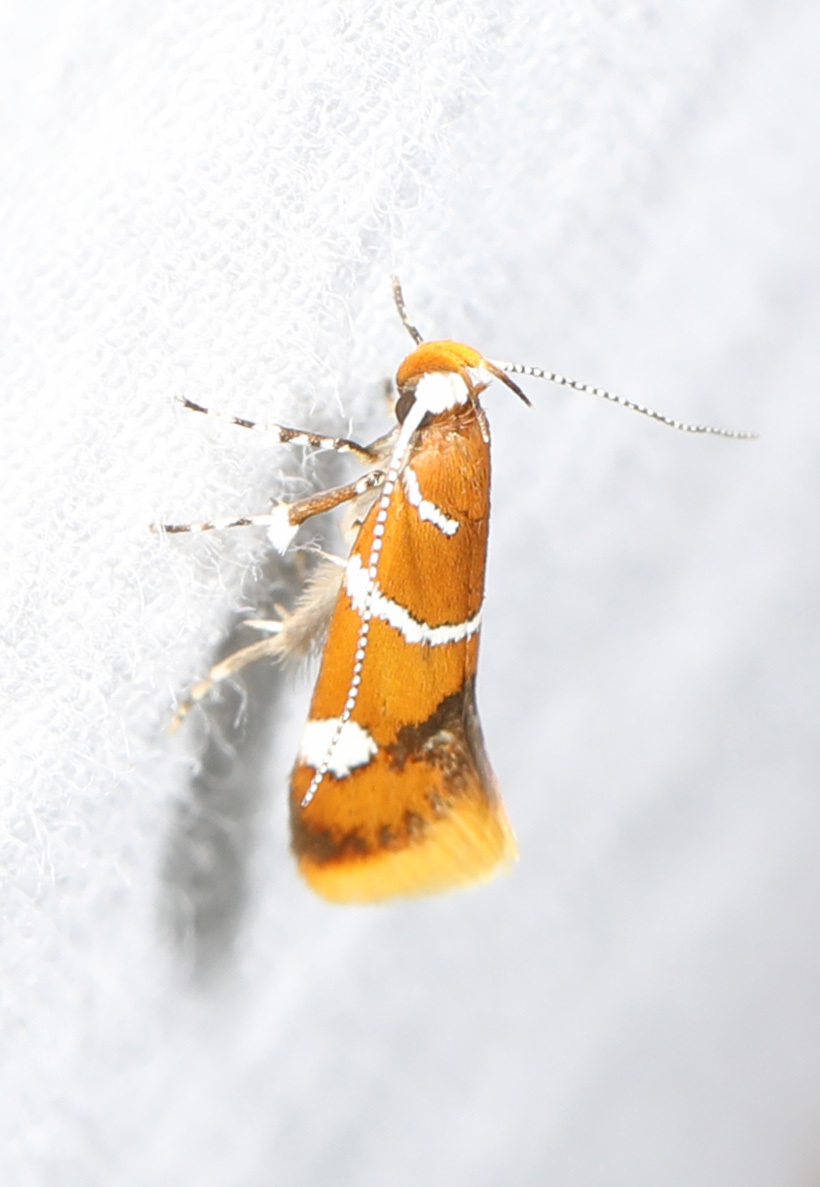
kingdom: Animalia
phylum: Arthropoda
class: Insecta
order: Lepidoptera
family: Oecophoridae
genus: Promalactis
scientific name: Promalactis suzukiella
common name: Moth
